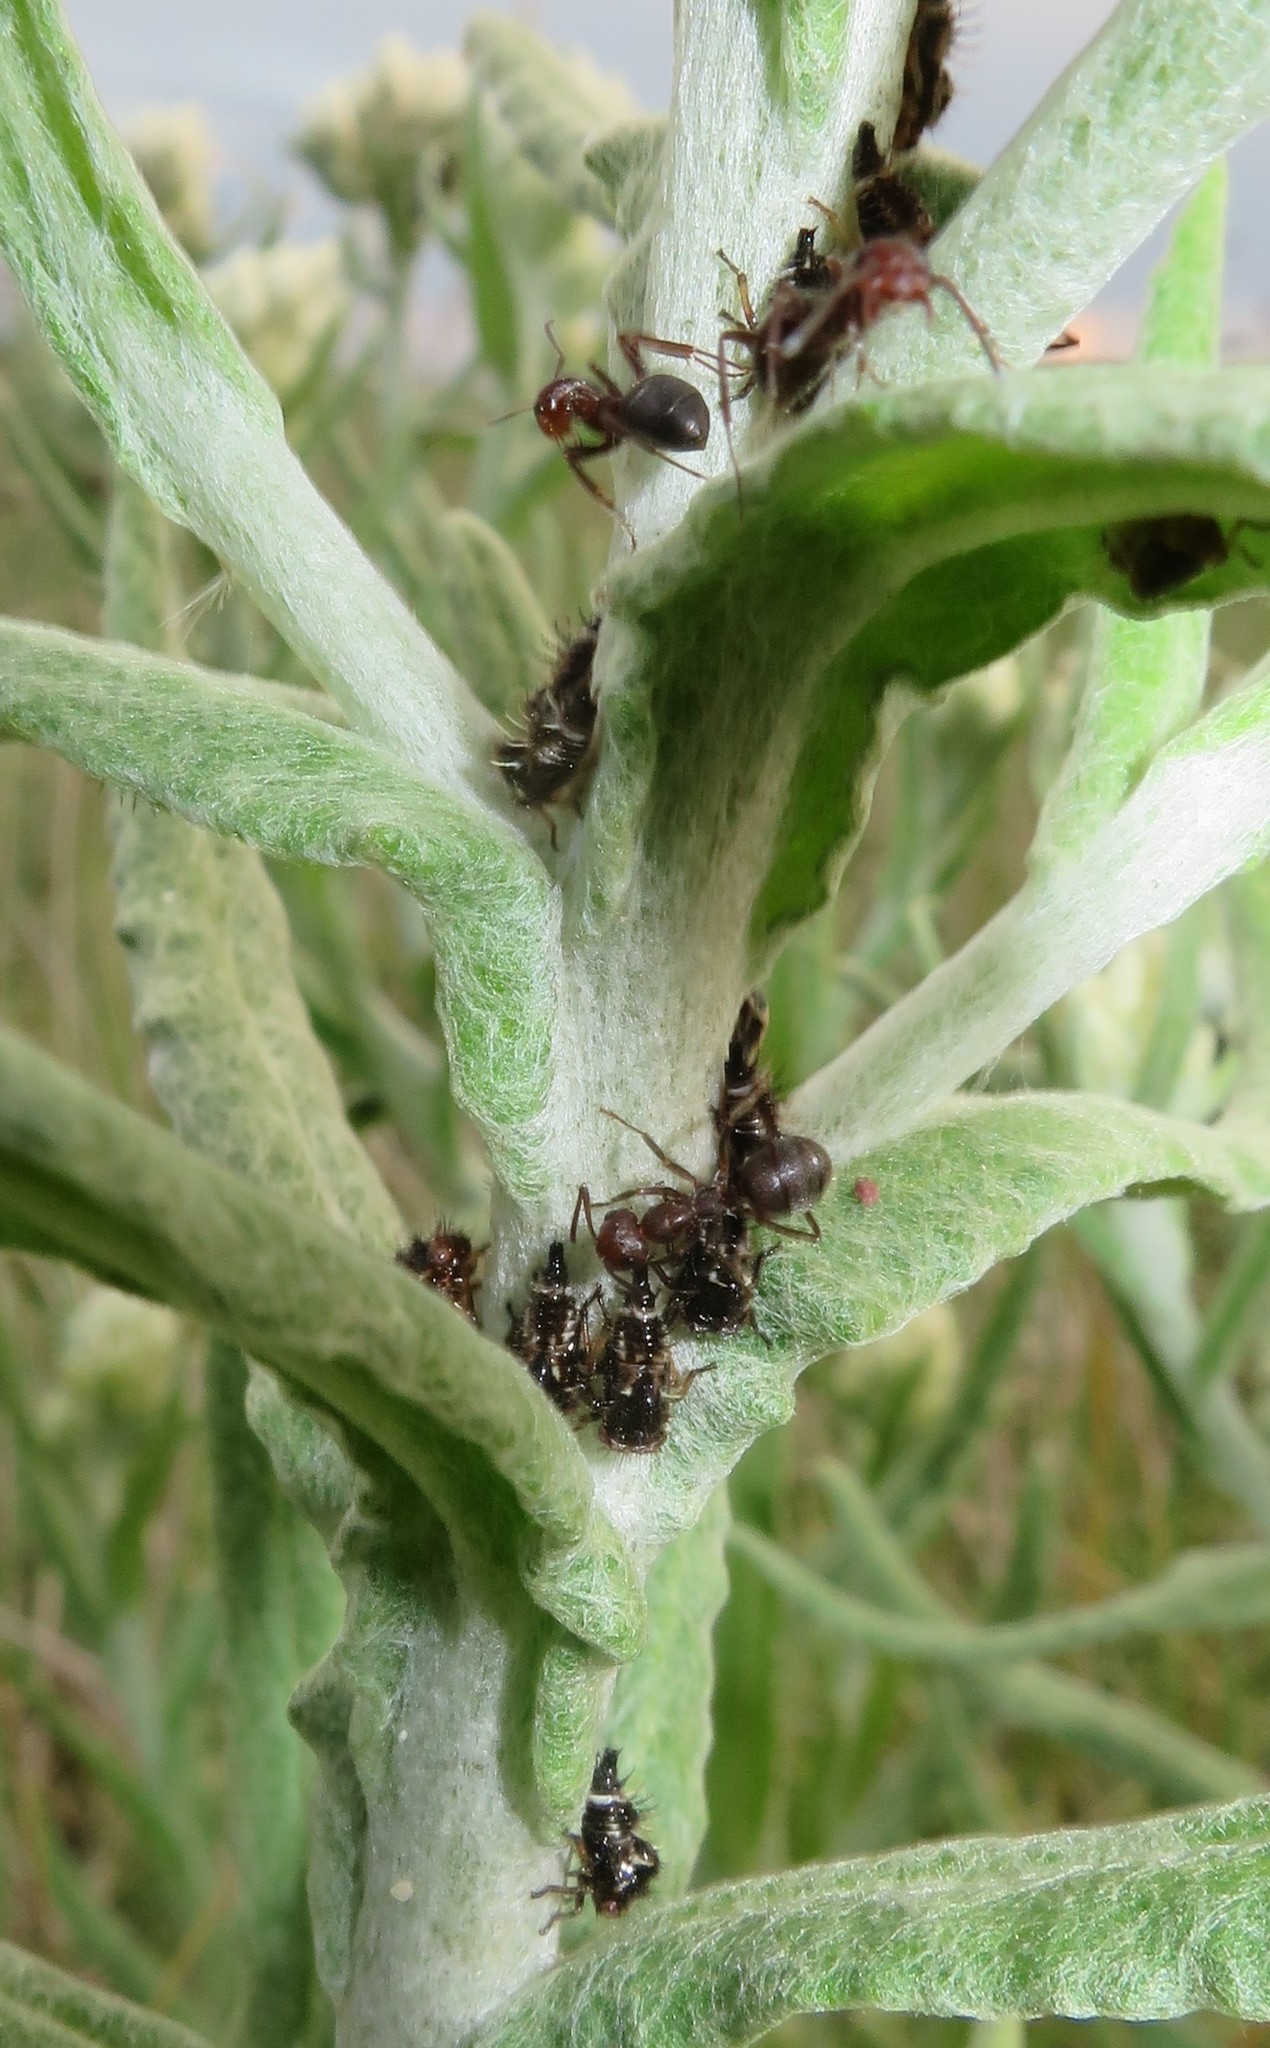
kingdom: Animalia
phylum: Arthropoda
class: Insecta
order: Hemiptera
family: Membracidae
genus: Publilia
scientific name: Publilia modesta
